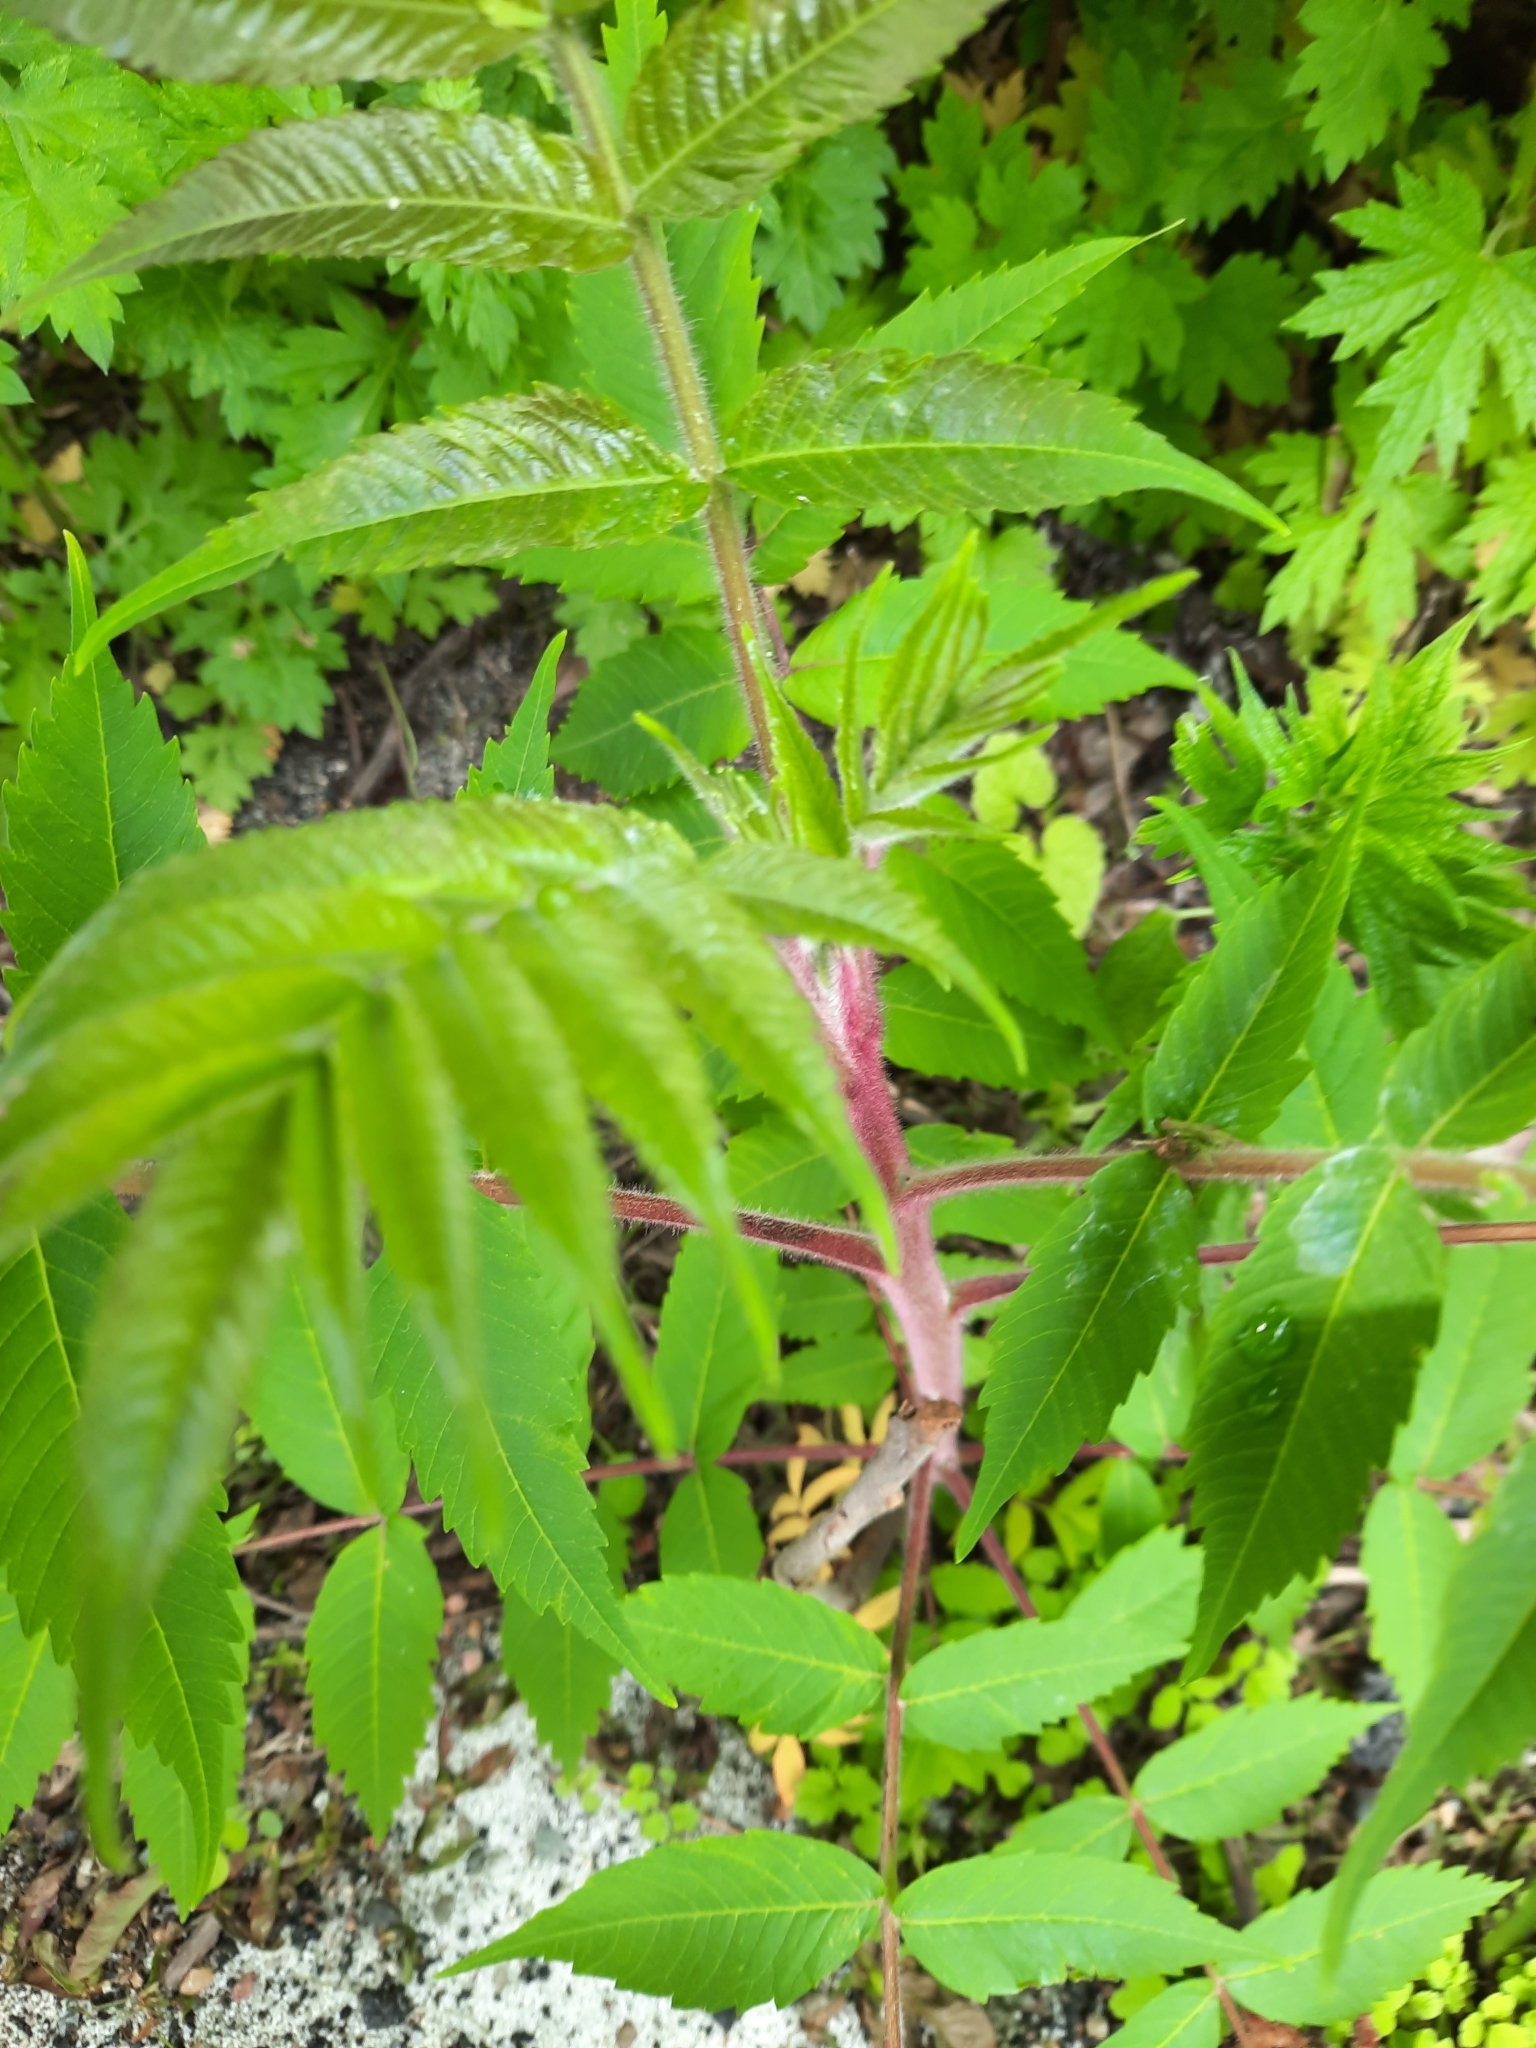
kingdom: Plantae
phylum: Tracheophyta
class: Magnoliopsida
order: Sapindales
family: Anacardiaceae
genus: Rhus
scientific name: Rhus typhina
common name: Staghorn sumac
